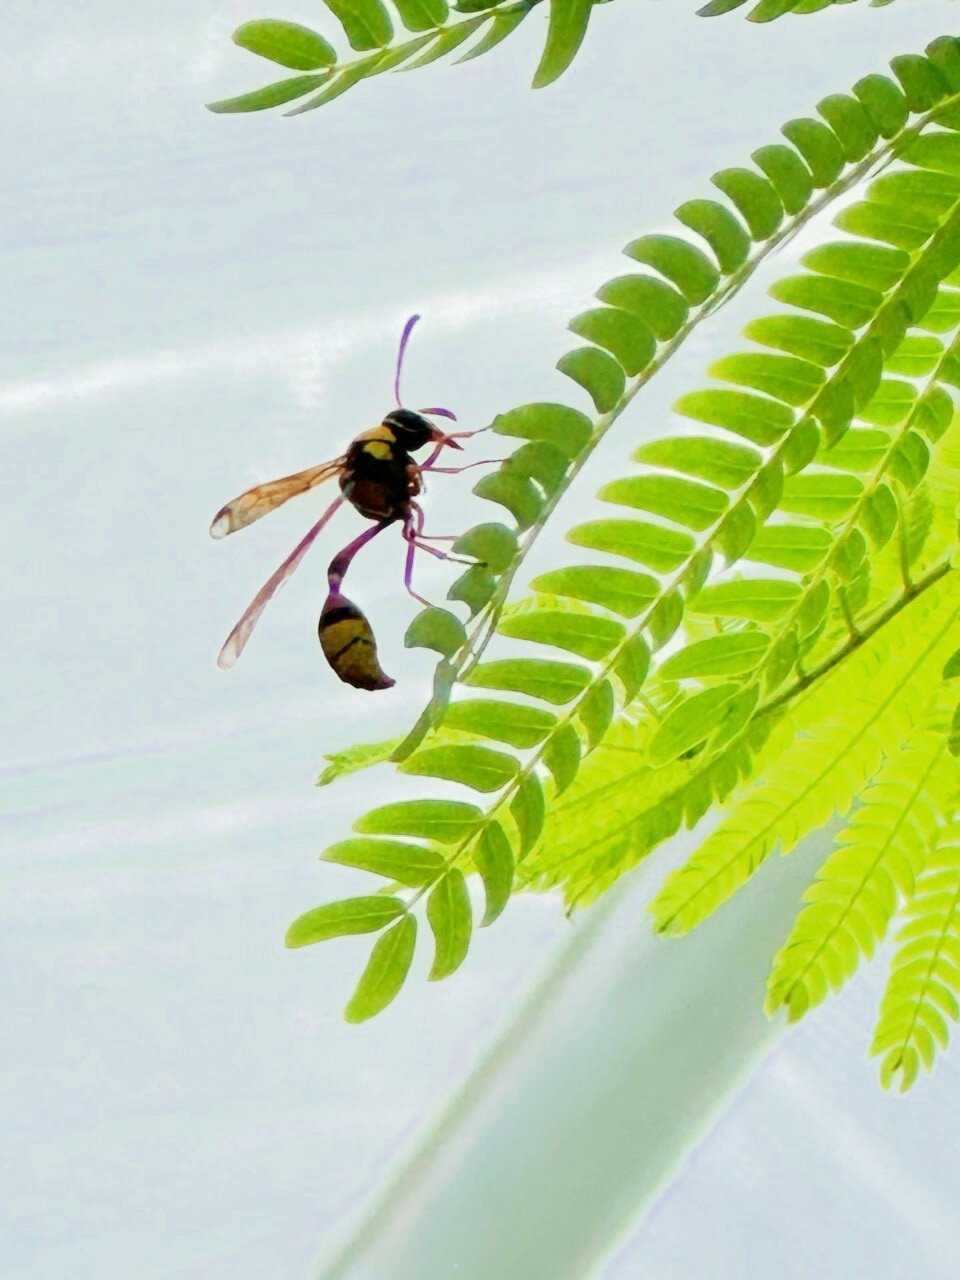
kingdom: Animalia
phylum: Arthropoda
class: Insecta
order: Hymenoptera
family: Eumenidae
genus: Delta
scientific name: Delta esuriens
